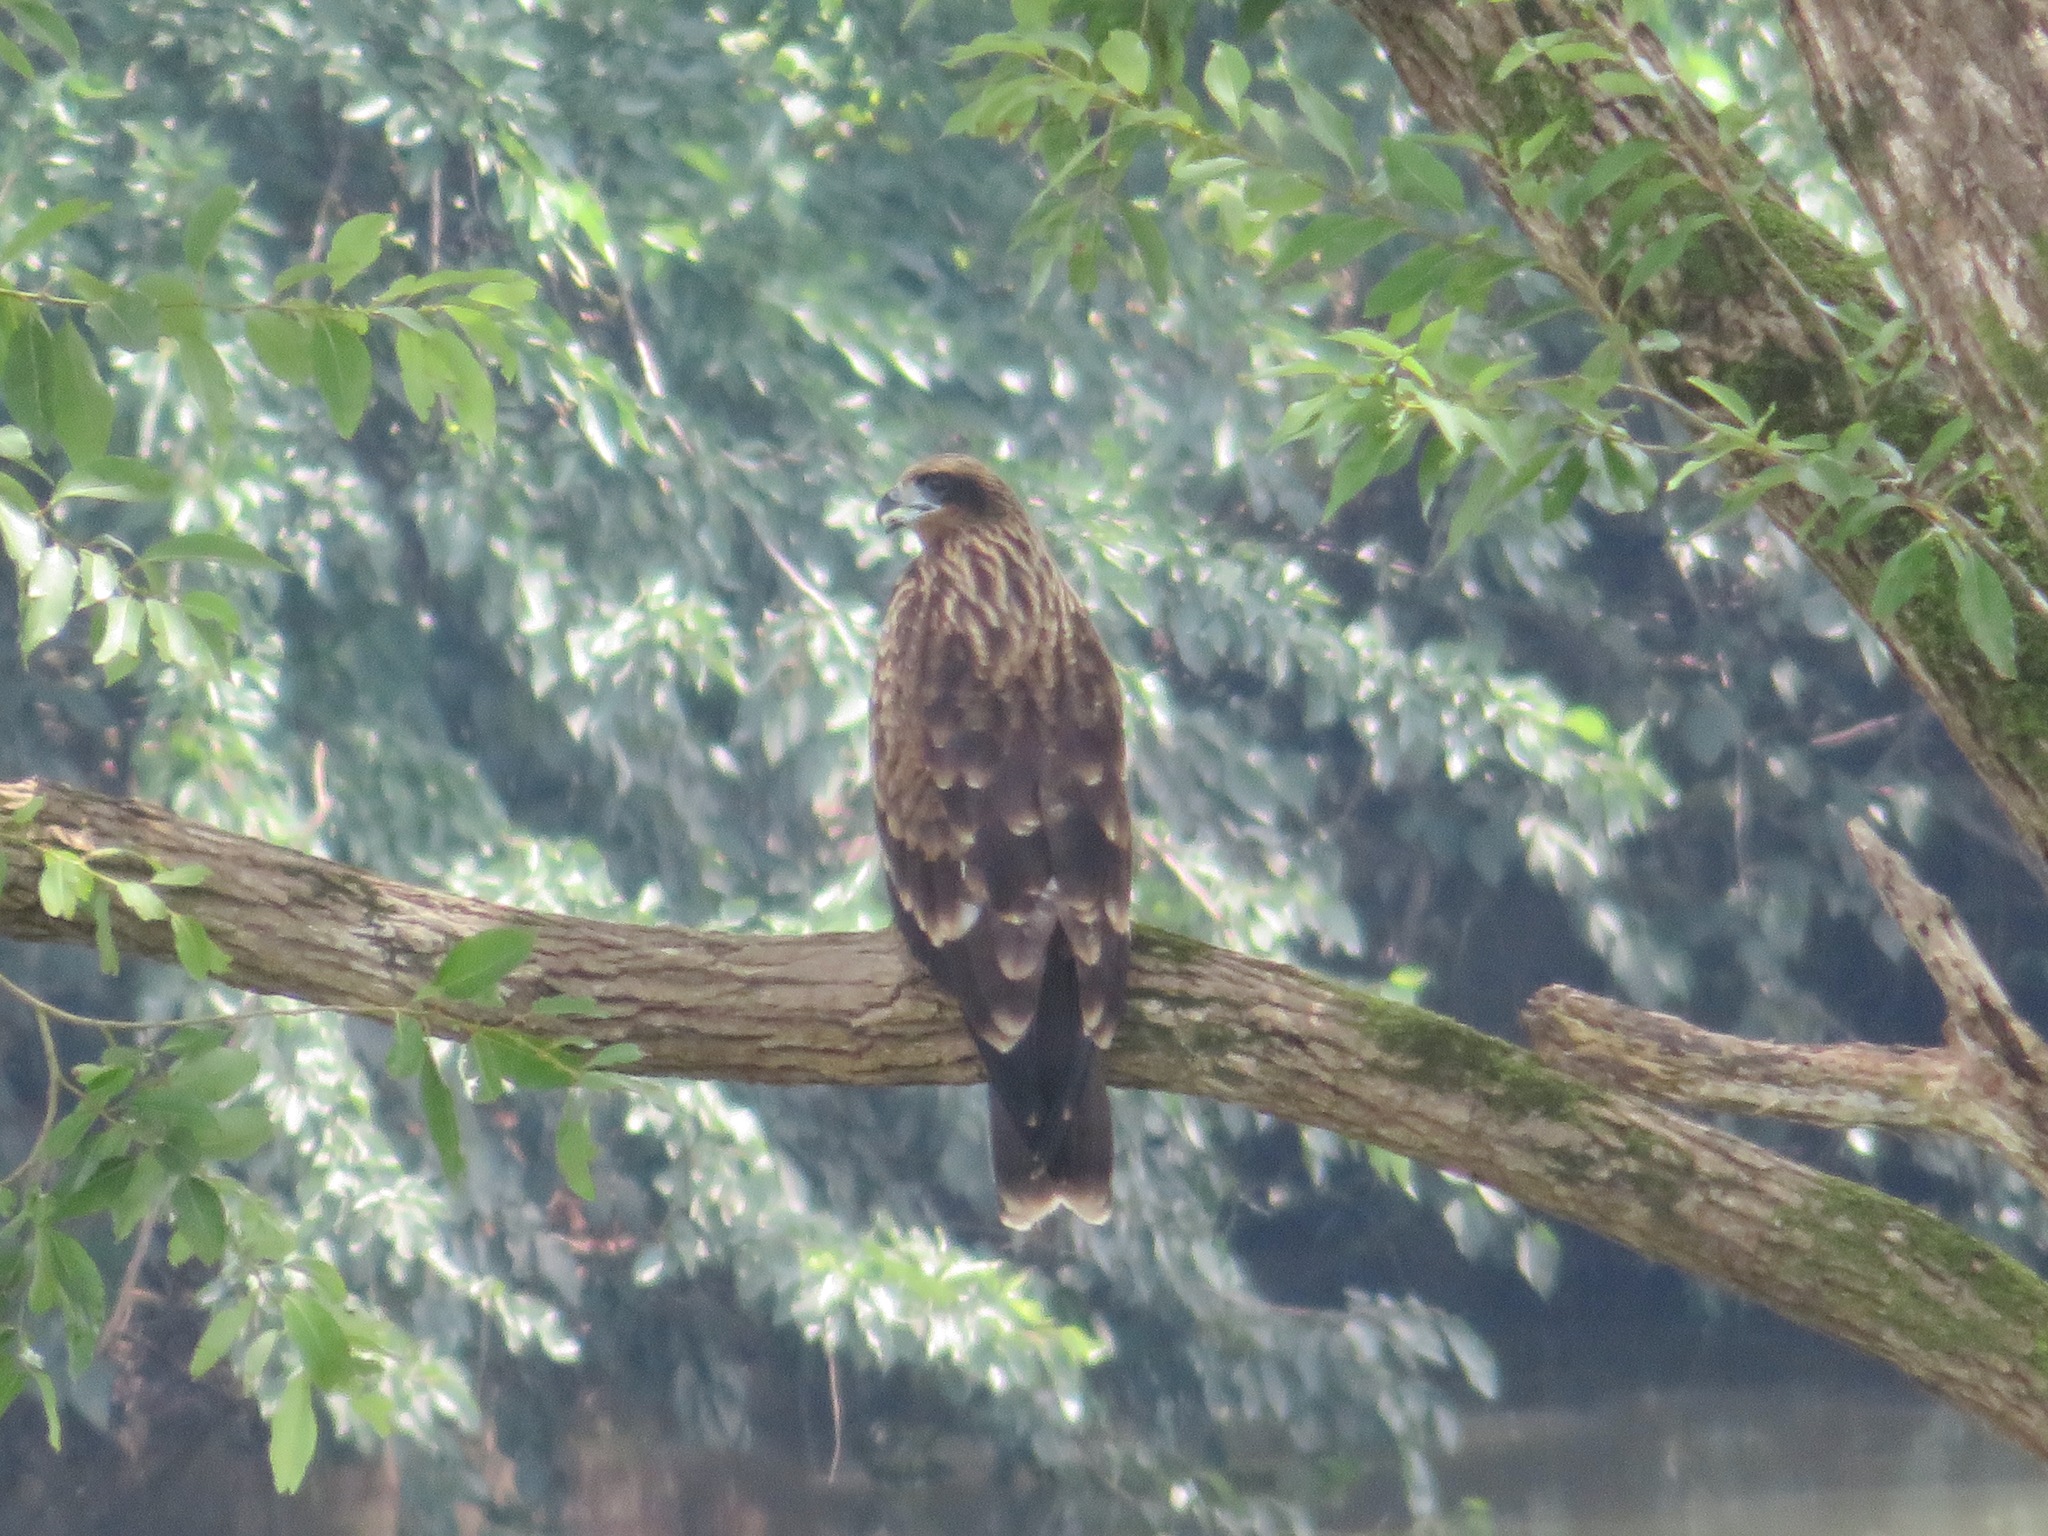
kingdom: Animalia
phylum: Chordata
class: Aves
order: Accipitriformes
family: Accipitridae
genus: Milvus
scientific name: Milvus migrans
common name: Black kite
